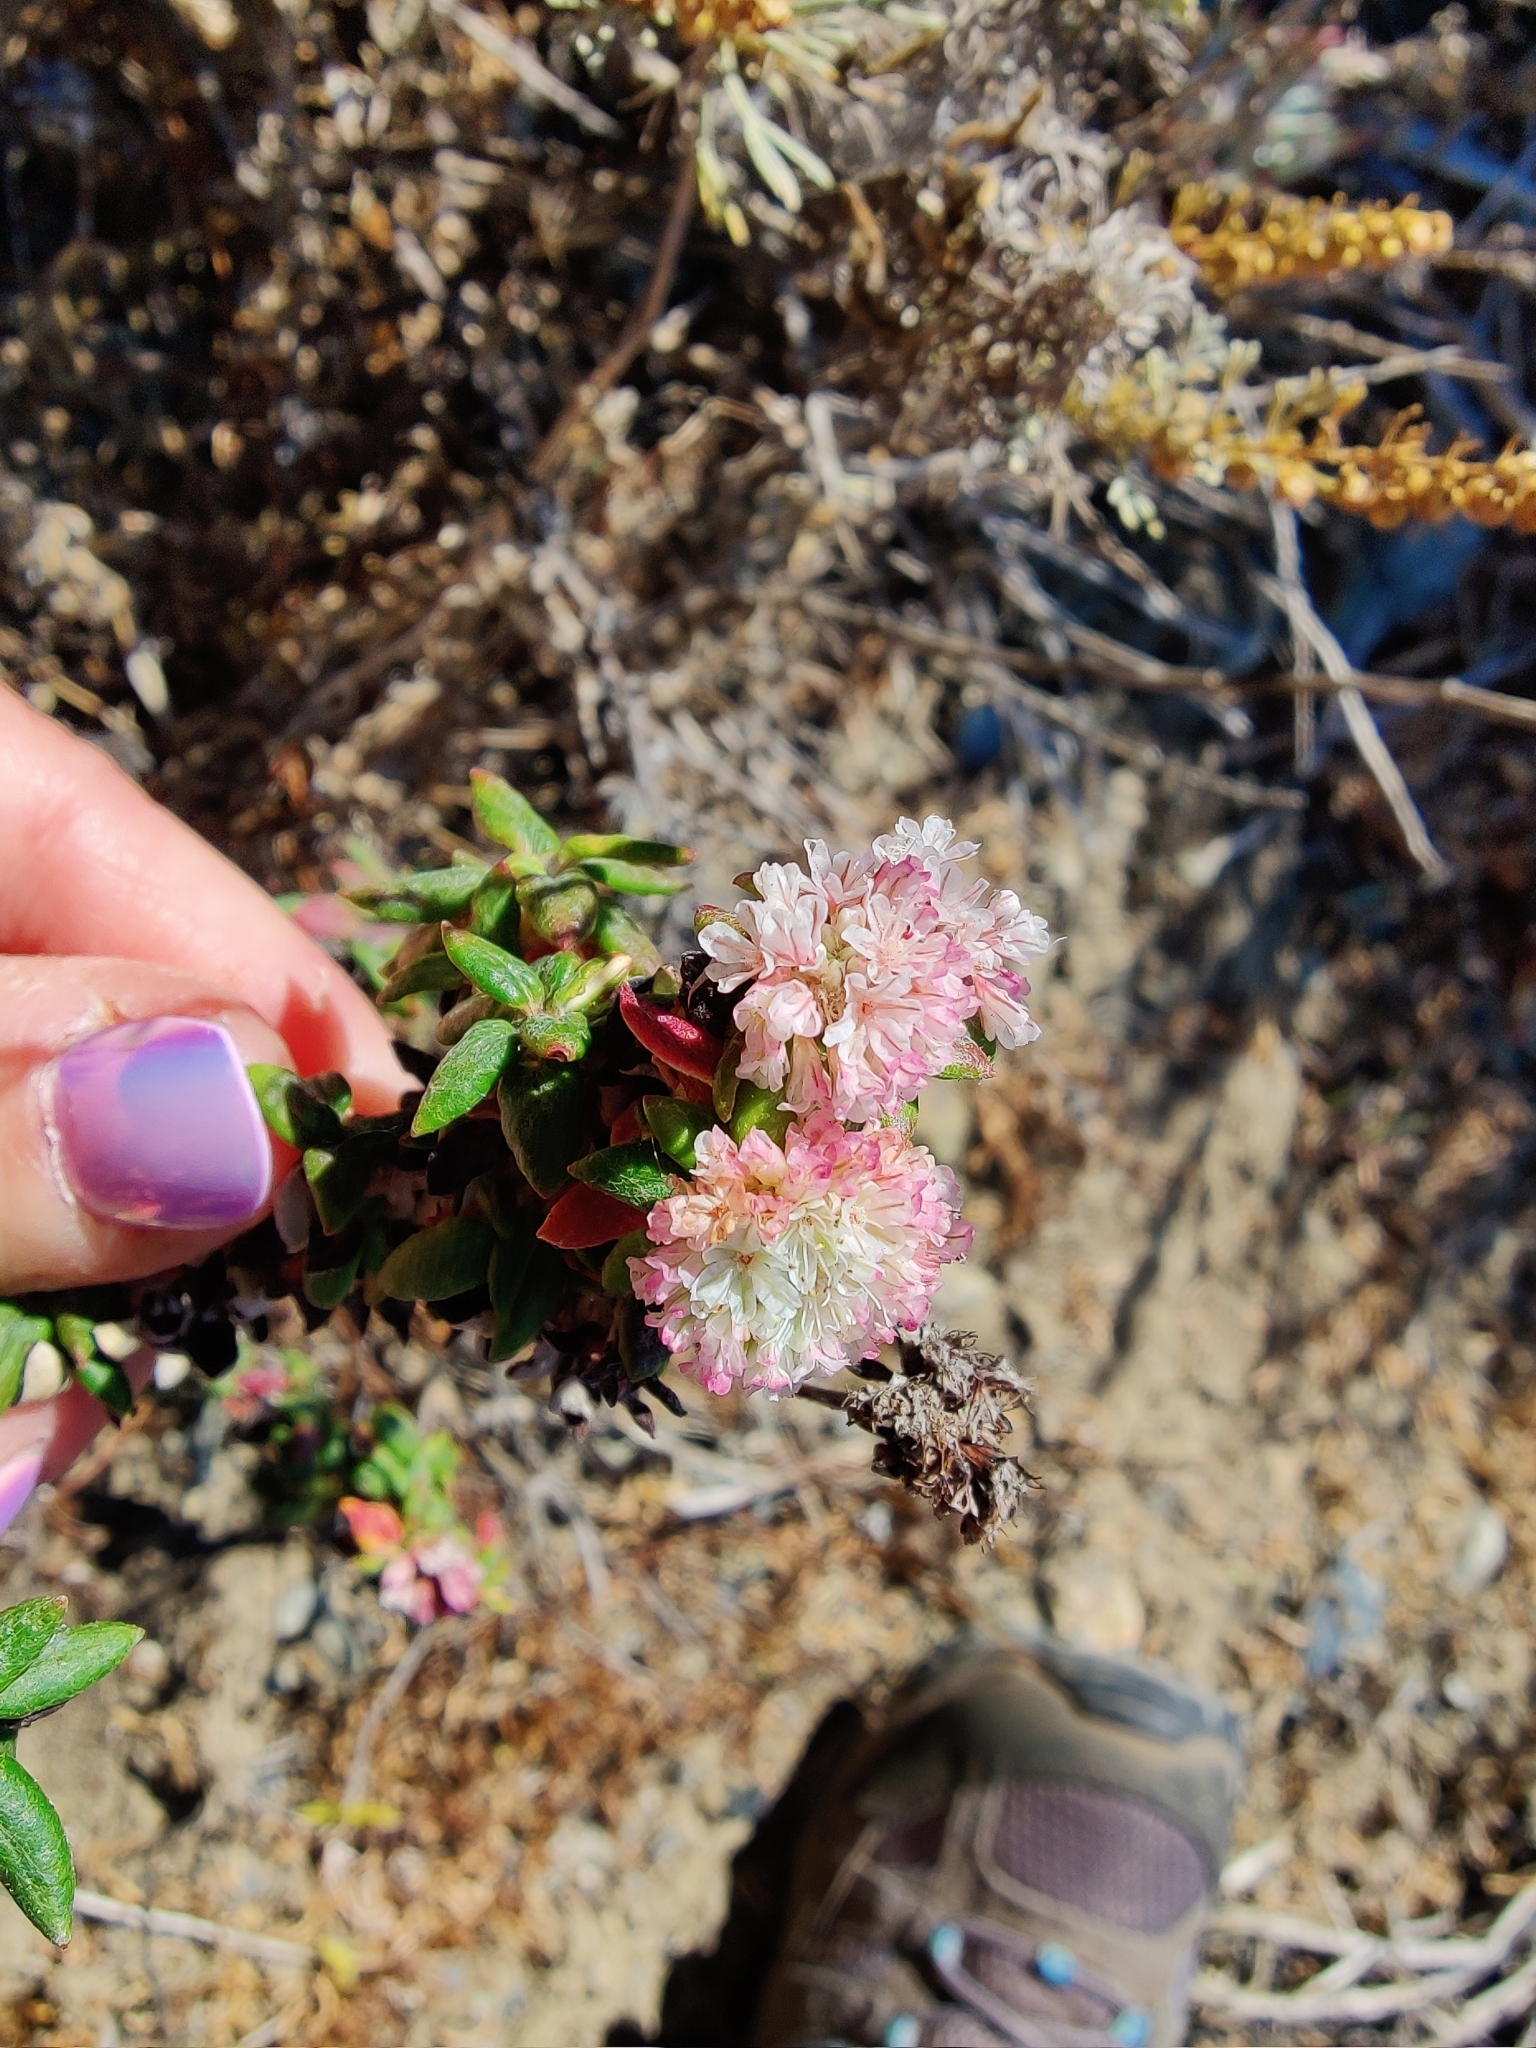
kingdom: Plantae
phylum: Tracheophyta
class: Magnoliopsida
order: Caryophyllales
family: Polygonaceae
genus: Eriogonum
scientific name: Eriogonum parvifolium
